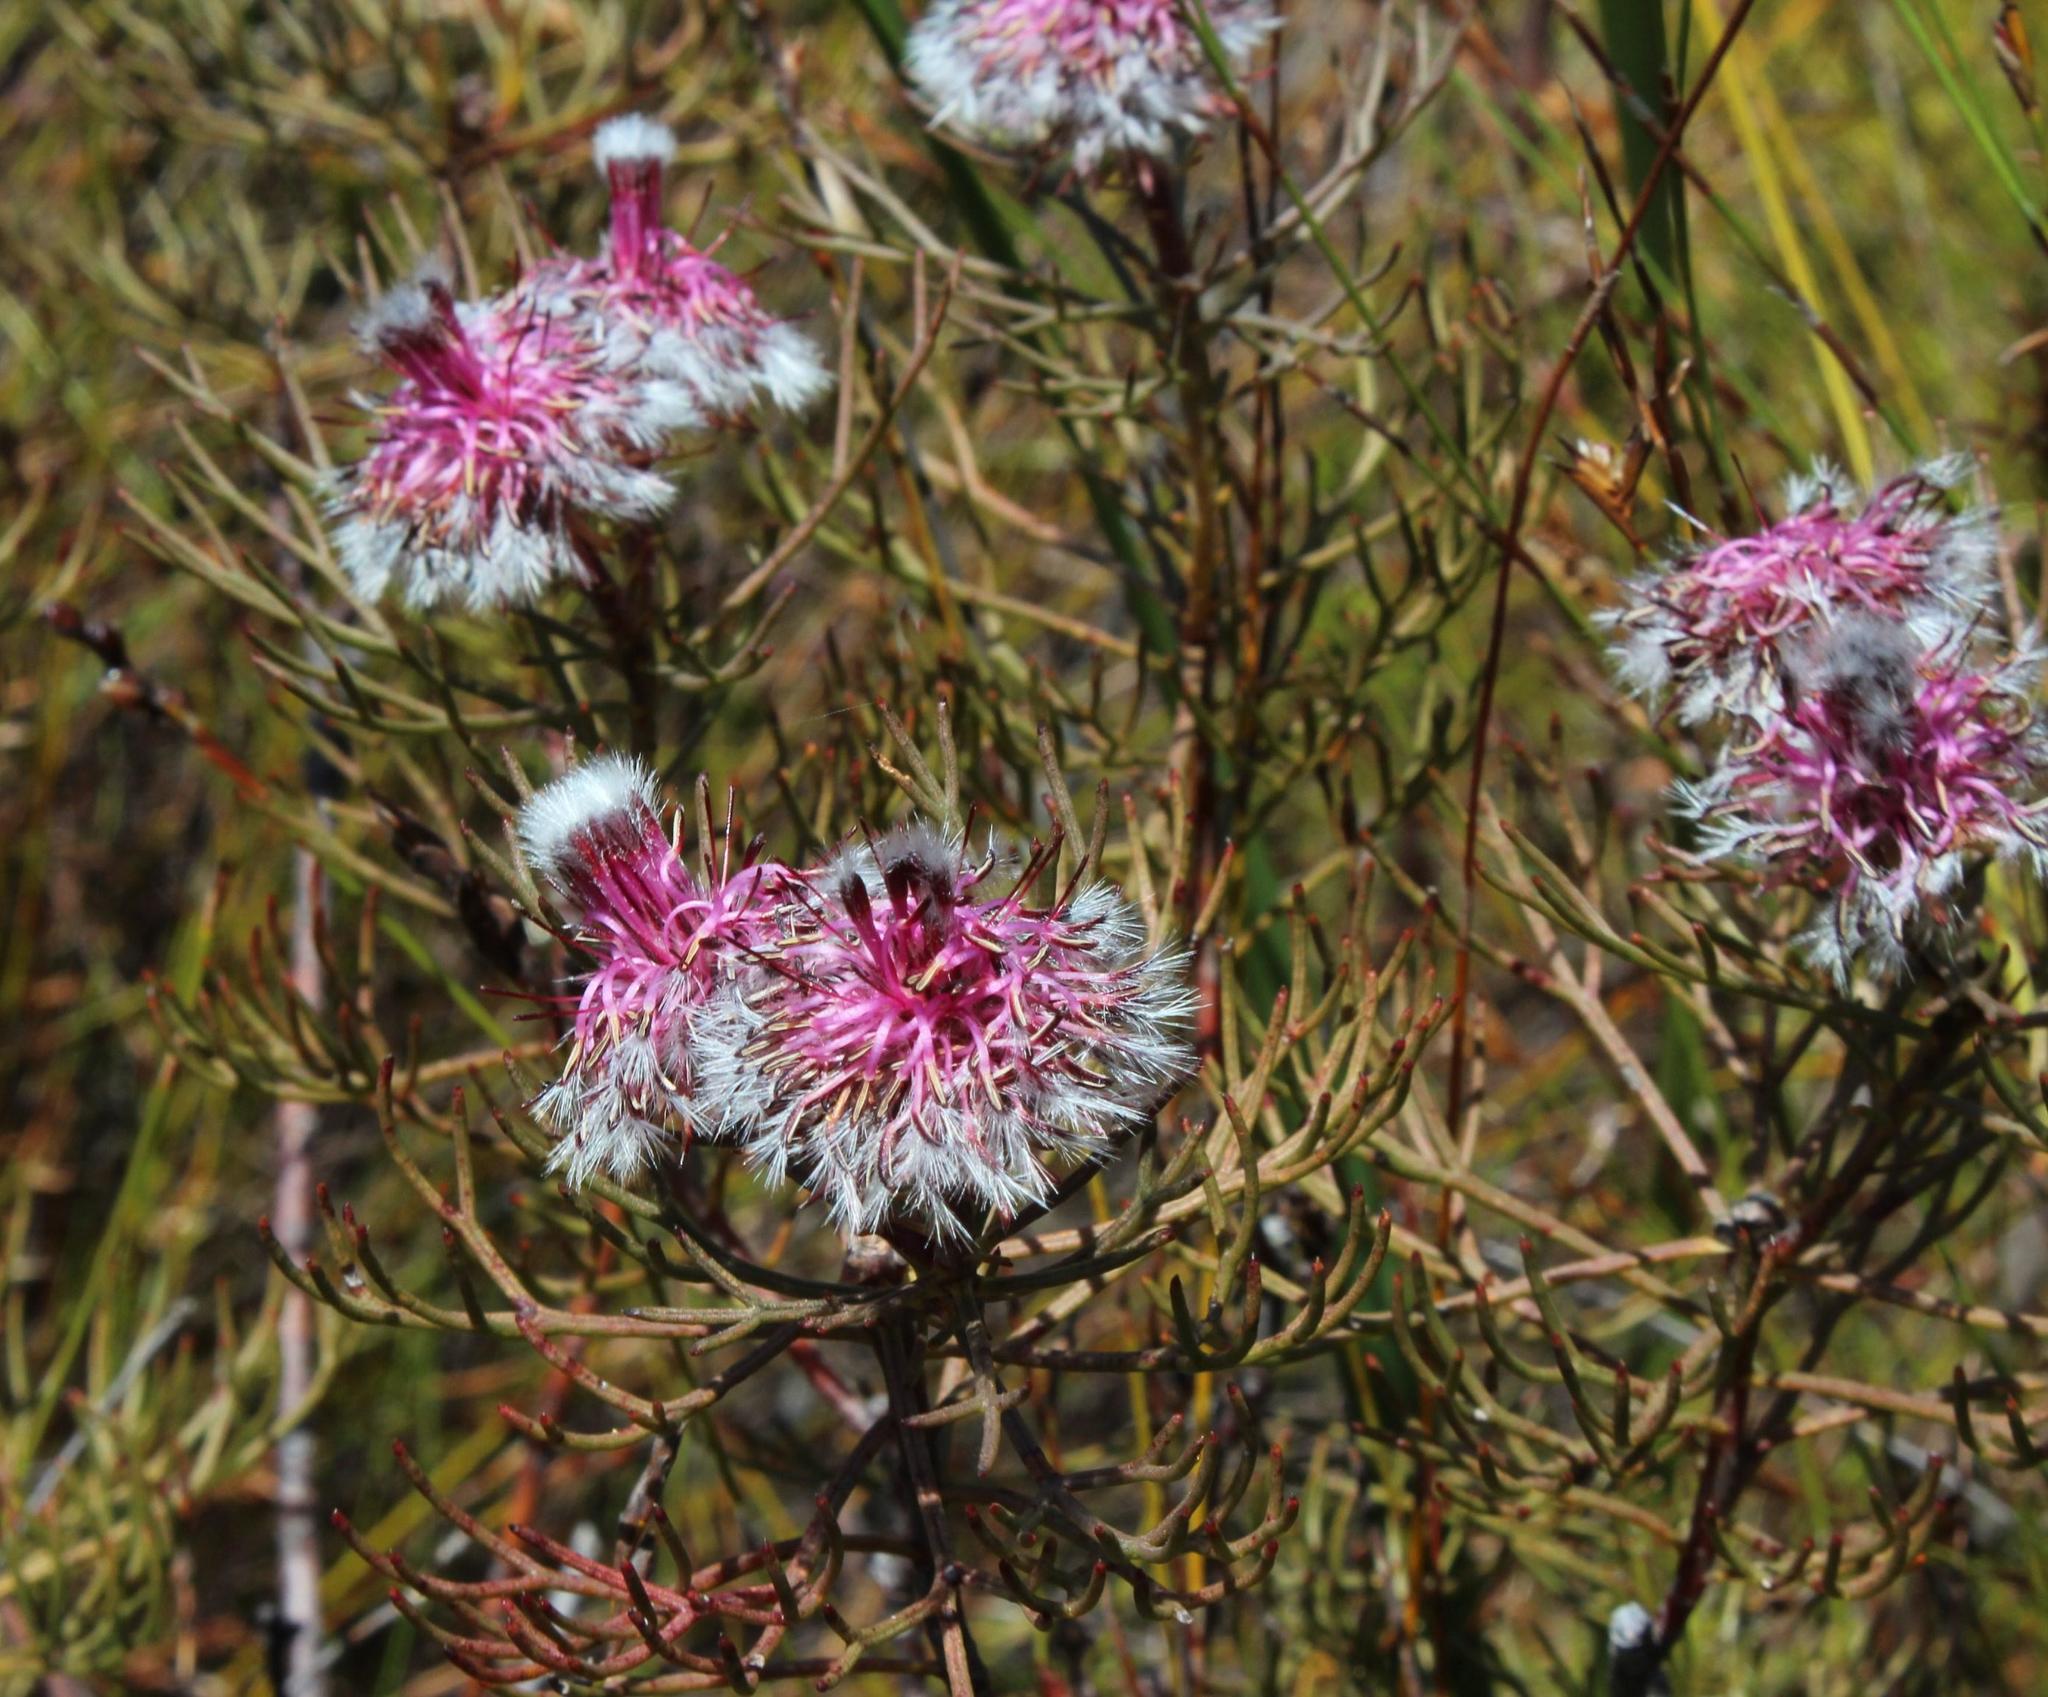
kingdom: Plantae
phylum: Tracheophyta
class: Magnoliopsida
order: Proteales
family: Proteaceae
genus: Serruria
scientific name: Serruria phylicoides
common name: Bearded spiderhead
